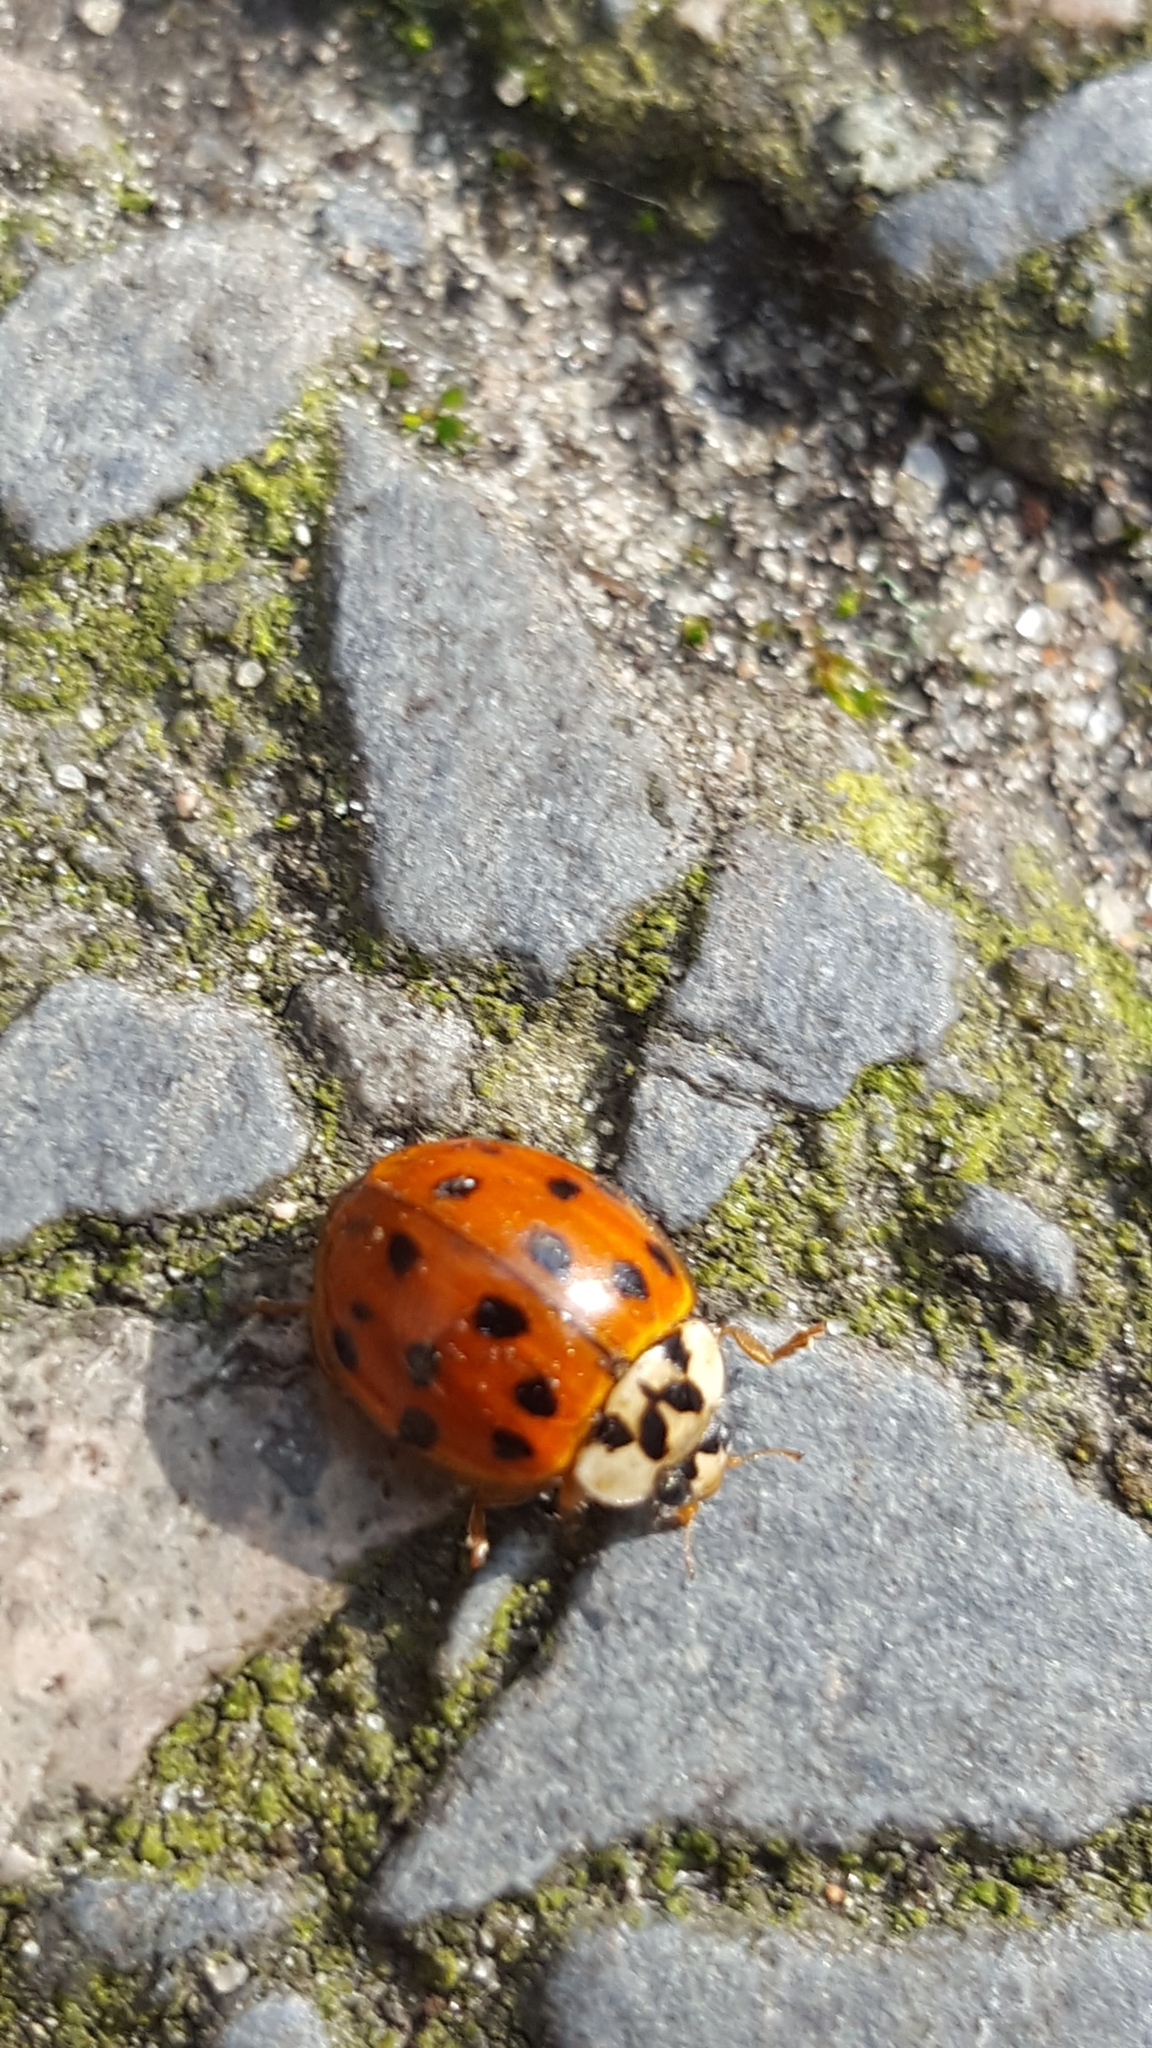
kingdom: Animalia
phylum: Arthropoda
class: Insecta
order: Coleoptera
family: Coccinellidae
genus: Harmonia
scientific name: Harmonia axyridis
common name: Harlequin ladybird
